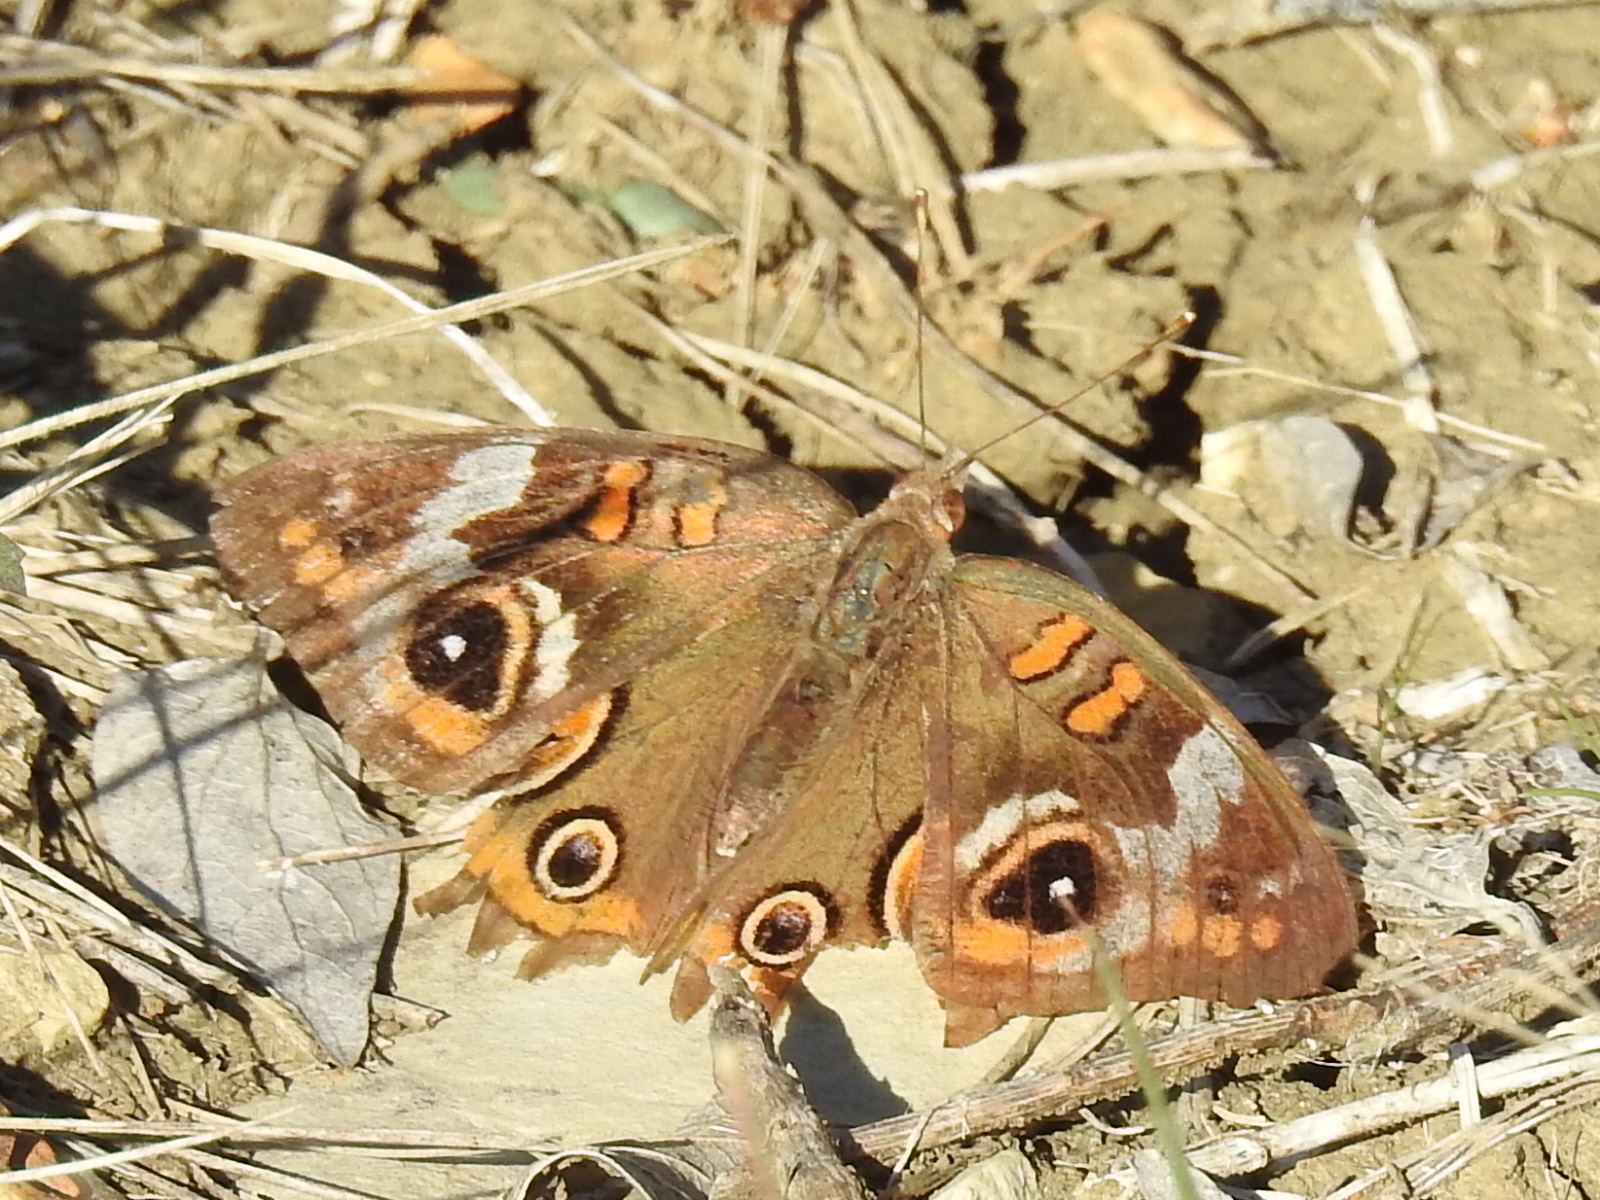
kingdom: Animalia
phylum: Arthropoda
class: Insecta
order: Lepidoptera
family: Nymphalidae
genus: Junonia
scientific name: Junonia coenia
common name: Common buckeye
